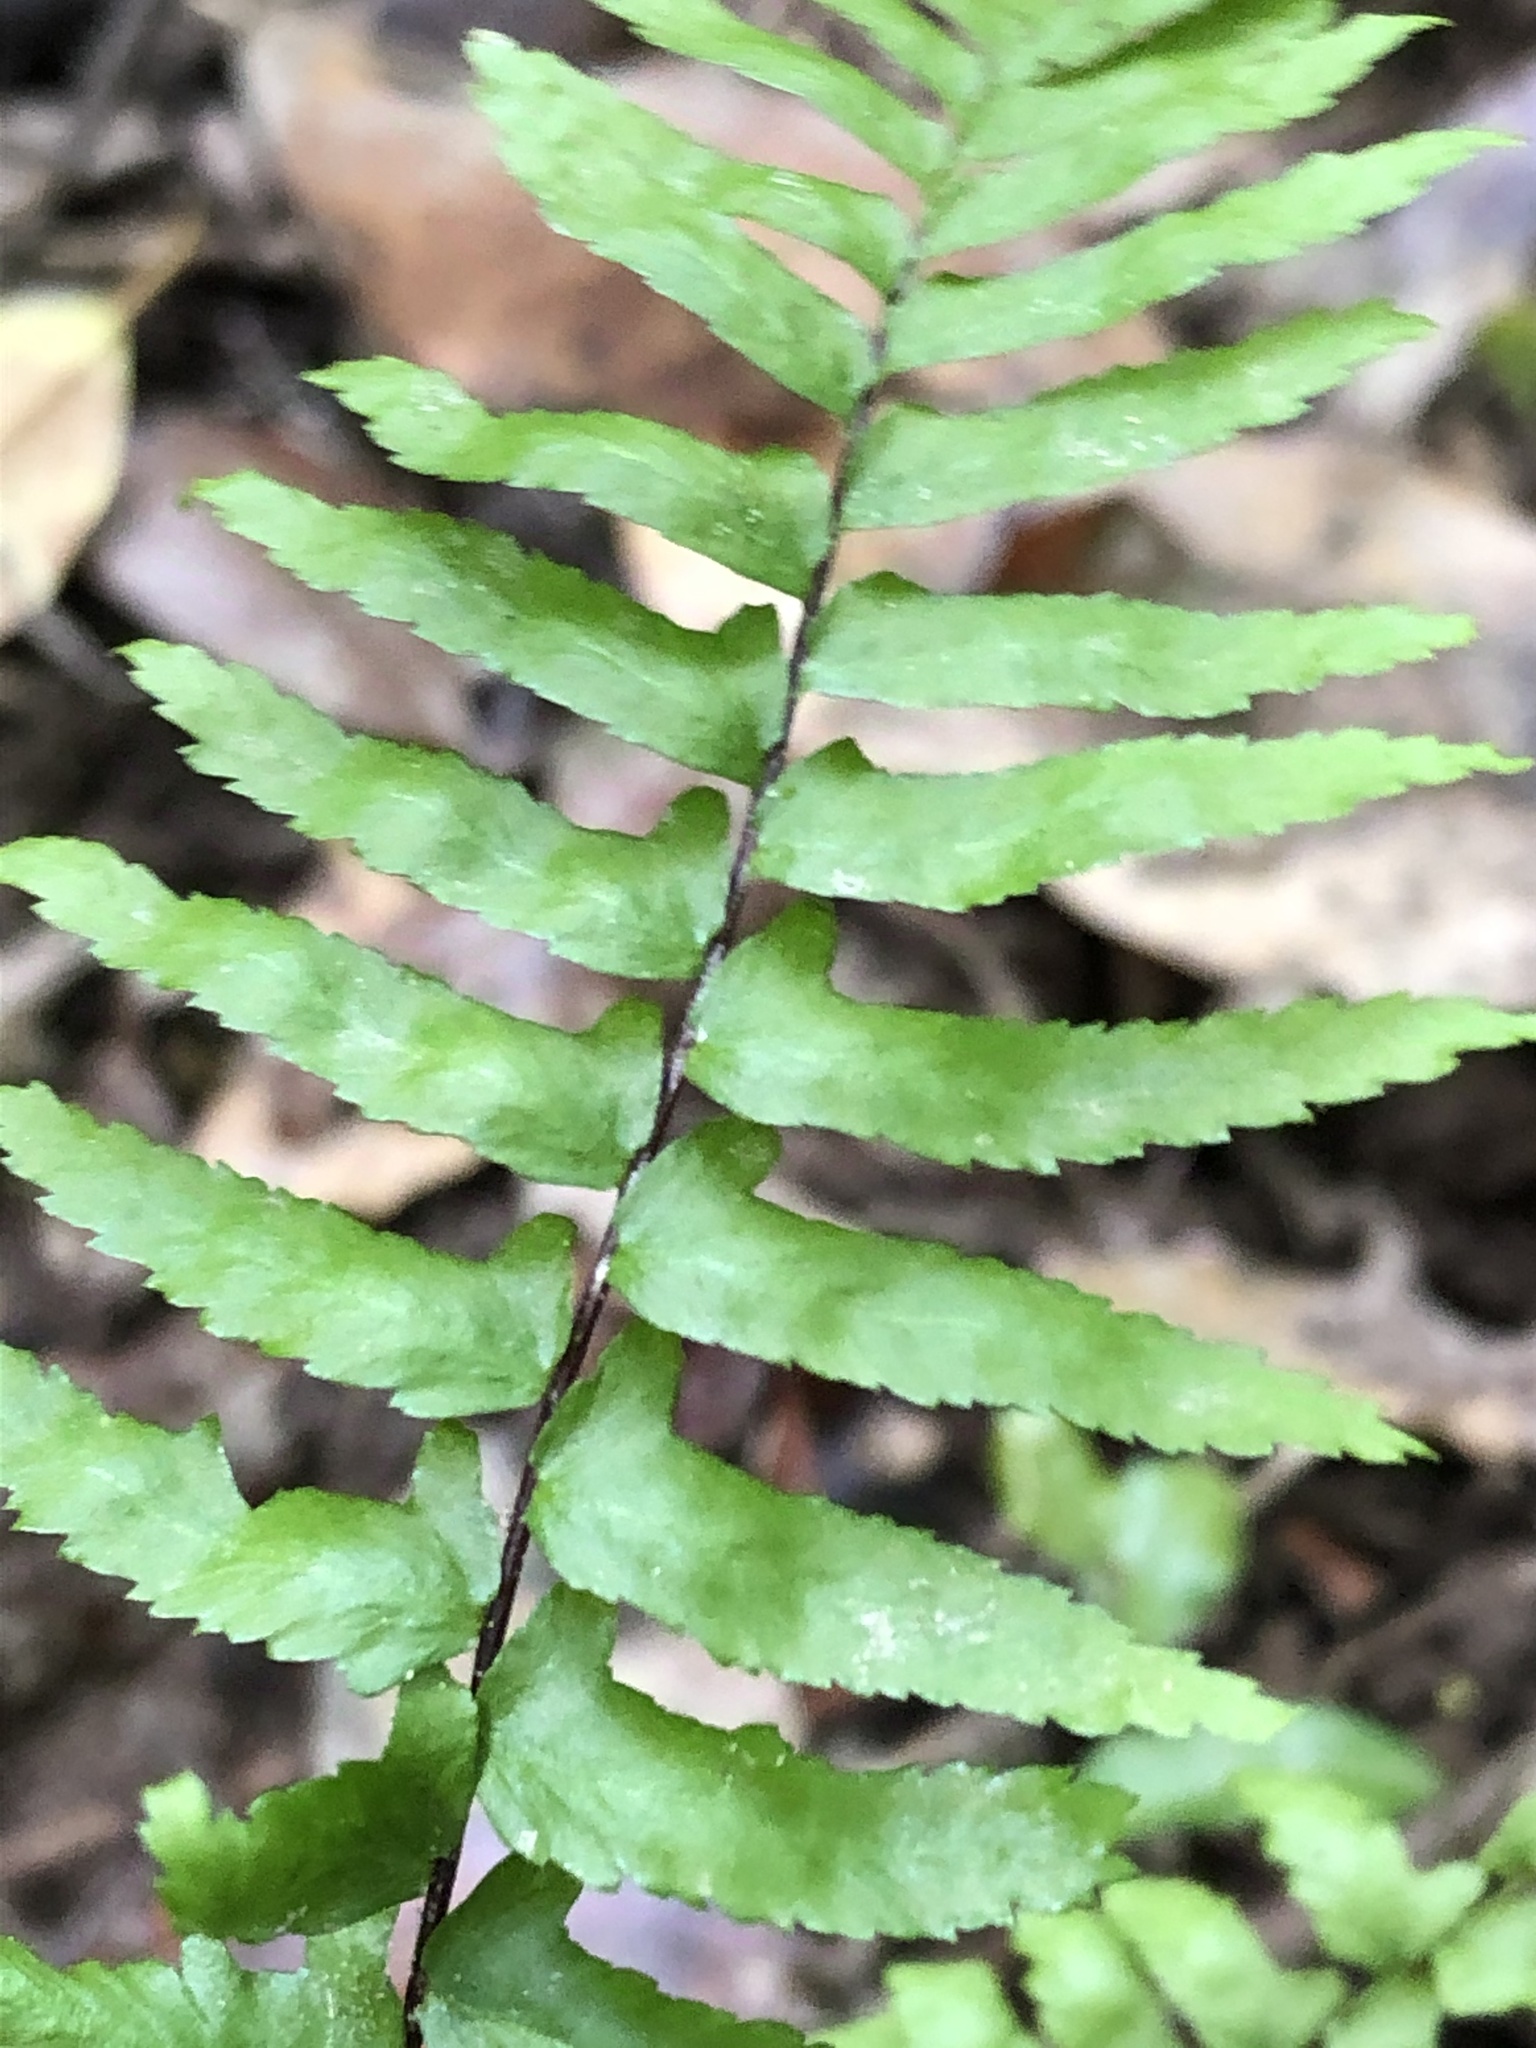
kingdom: Plantae
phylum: Tracheophyta
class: Polypodiopsida
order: Polypodiales
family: Aspleniaceae
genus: Asplenium
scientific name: Asplenium platyneuron
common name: Ebony spleenwort
